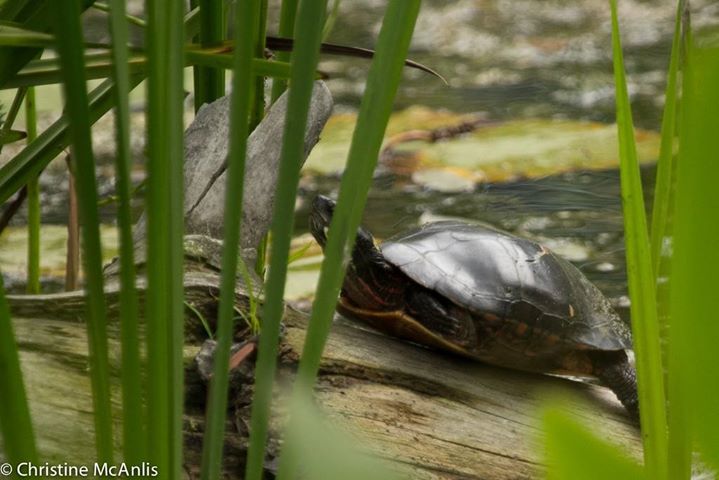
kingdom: Animalia
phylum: Chordata
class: Testudines
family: Emydidae
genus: Chrysemys
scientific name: Chrysemys picta
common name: Painted turtle
